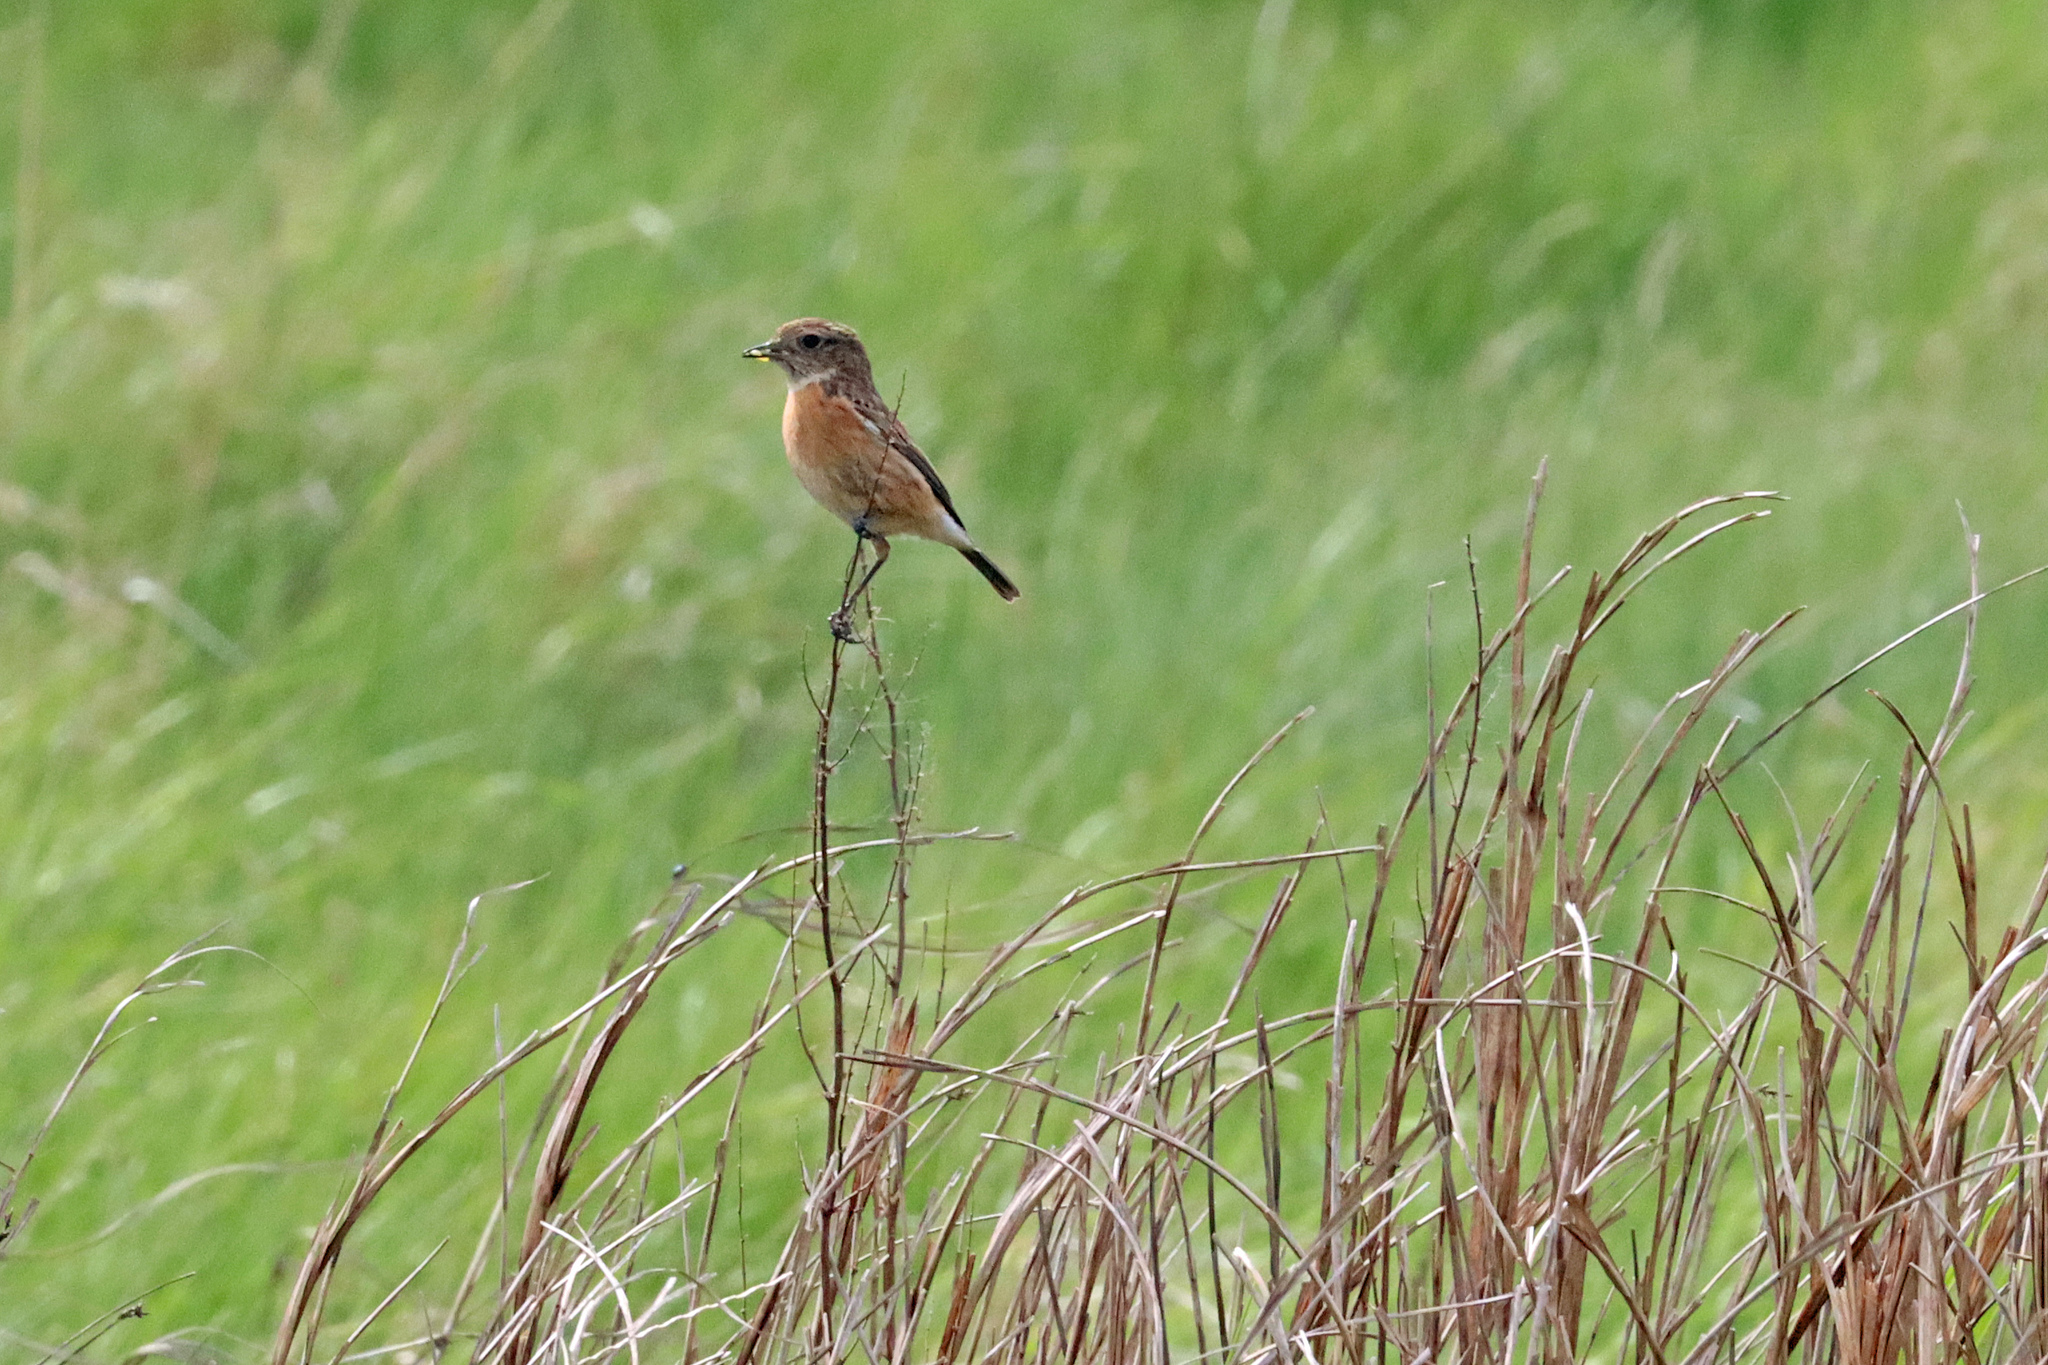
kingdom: Animalia
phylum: Chordata
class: Aves
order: Passeriformes
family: Muscicapidae
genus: Saxicola
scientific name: Saxicola rubicola
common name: European stonechat
